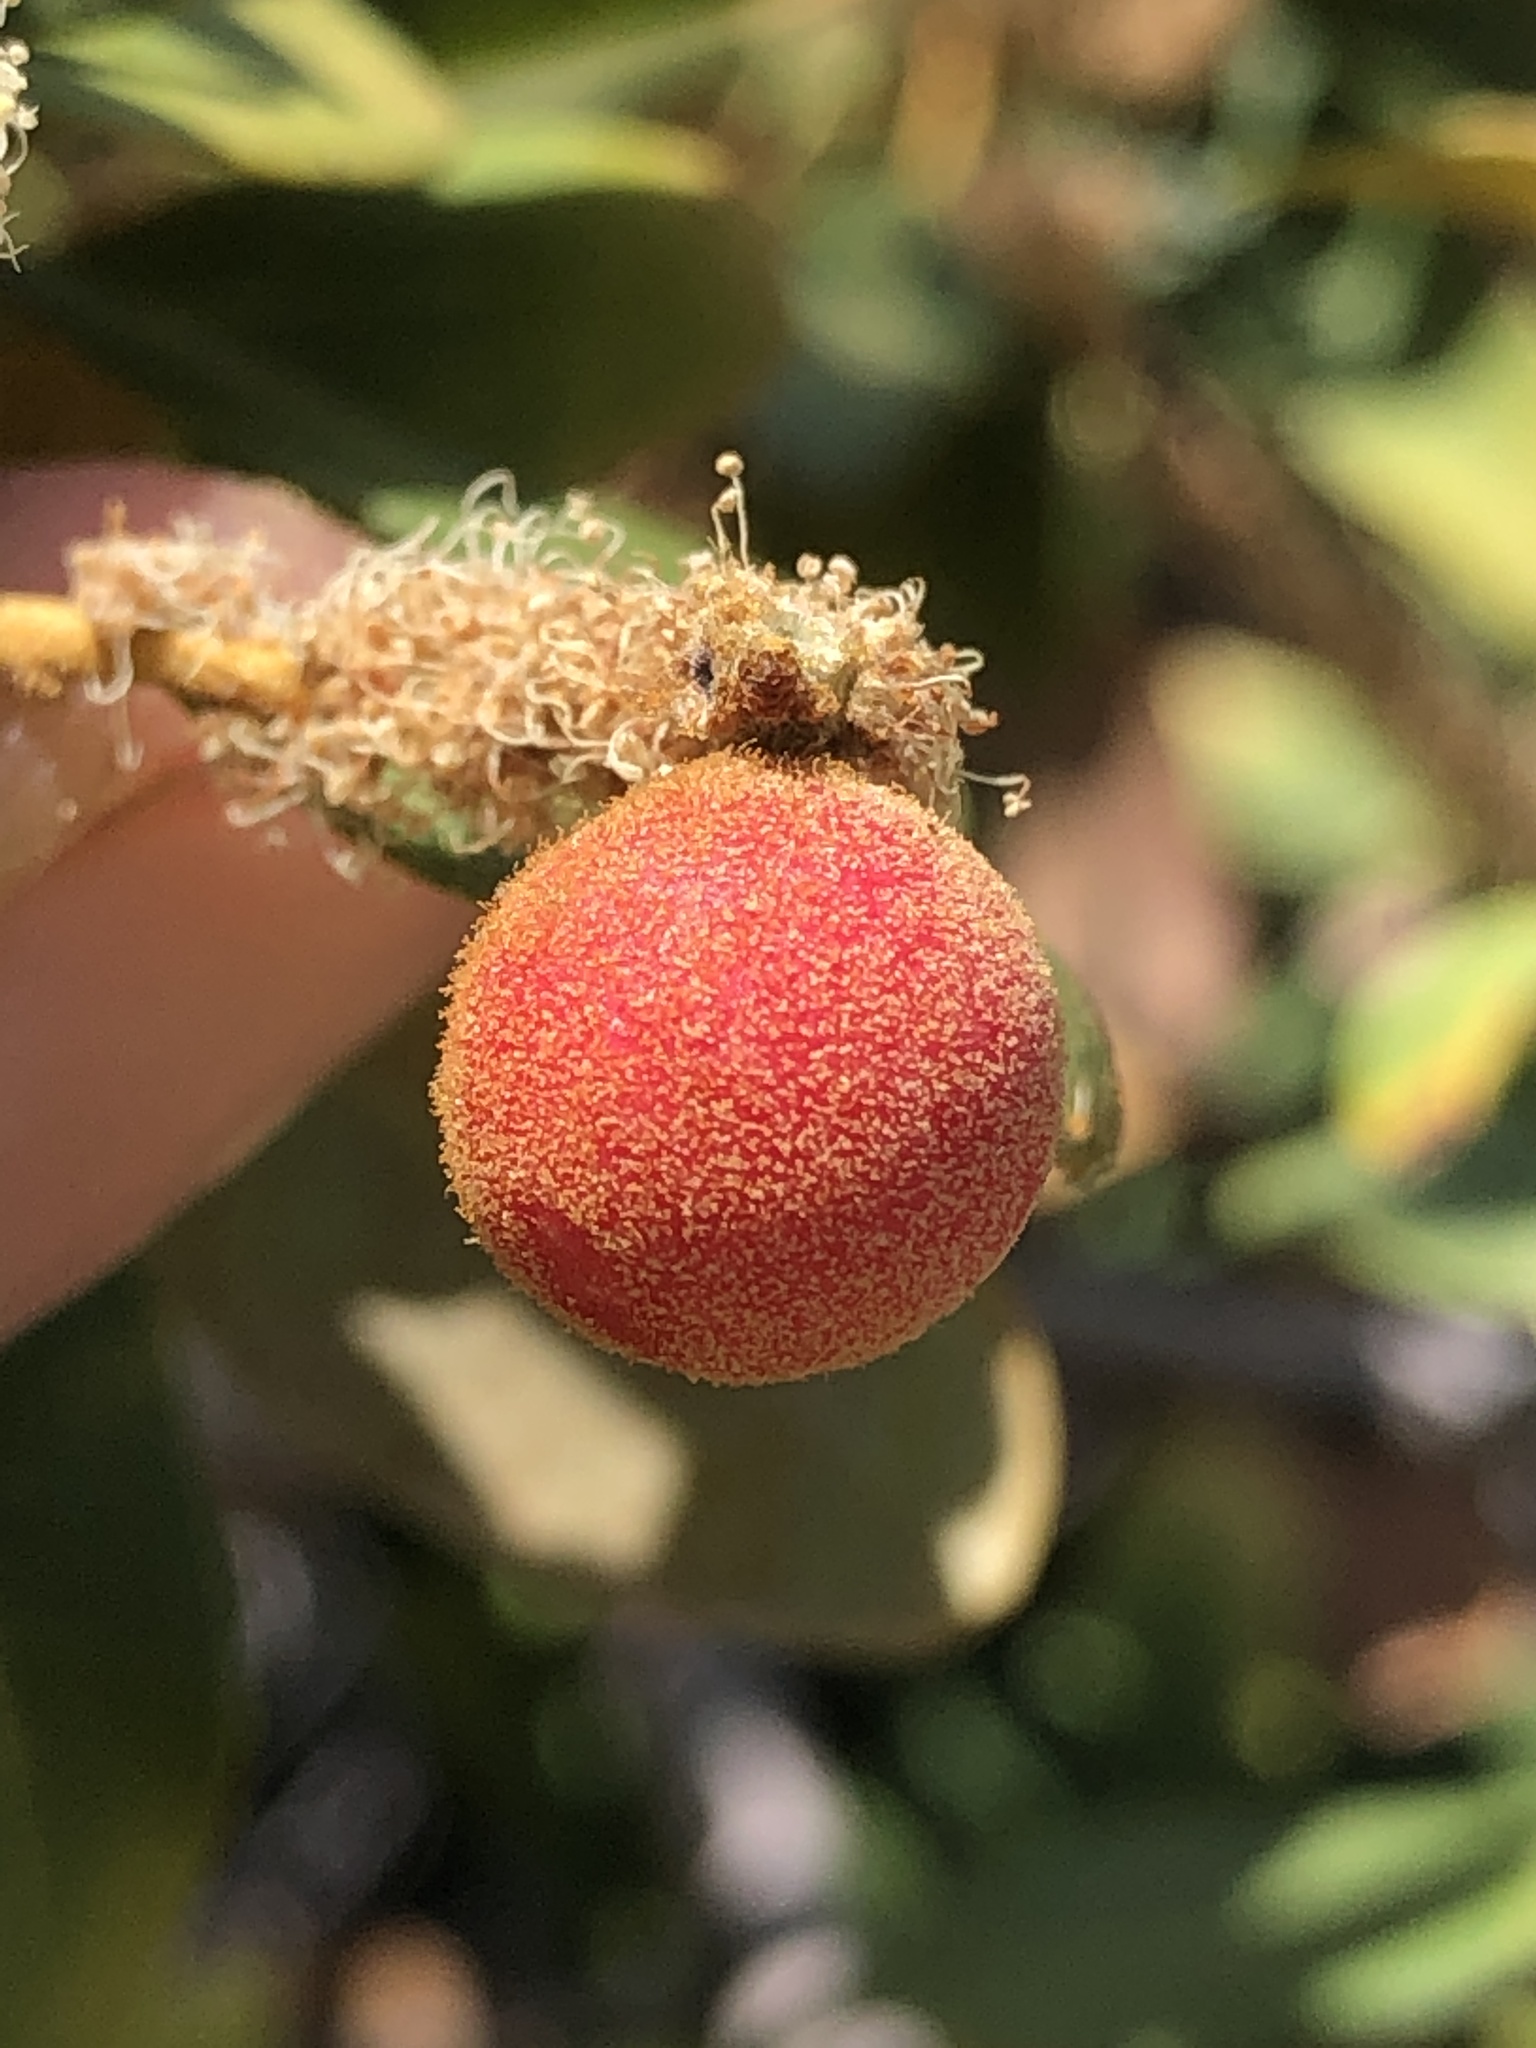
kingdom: Animalia
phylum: Arthropoda
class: Insecta
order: Hymenoptera
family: Cynipidae
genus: Synergus
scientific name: Synergus castanopsidis
